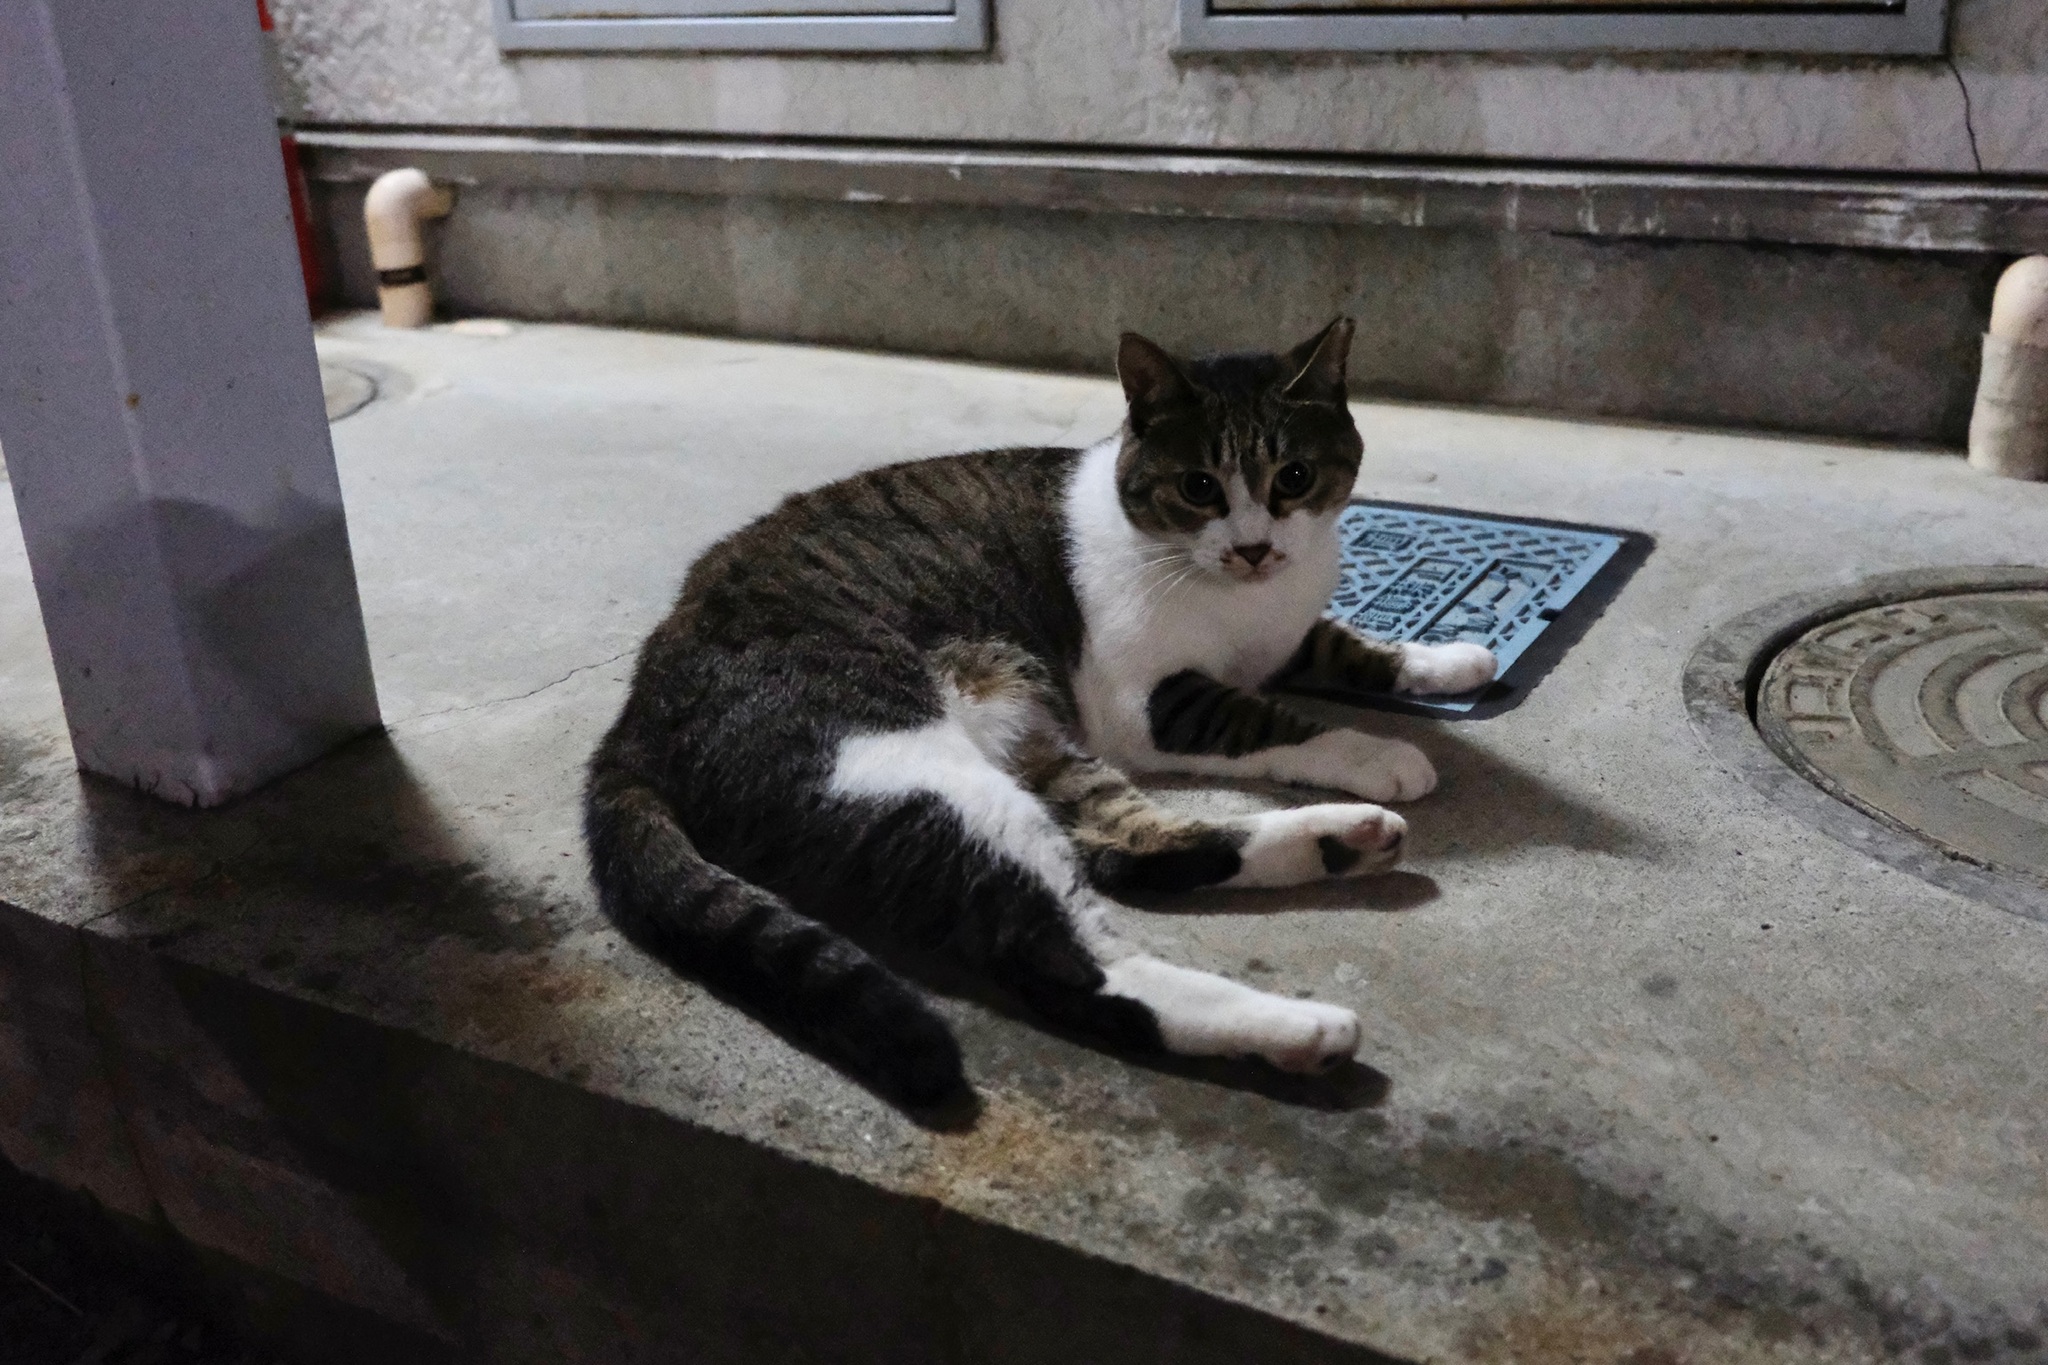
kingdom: Animalia
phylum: Chordata
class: Mammalia
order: Carnivora
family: Felidae
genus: Felis
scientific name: Felis catus
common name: Domestic cat
